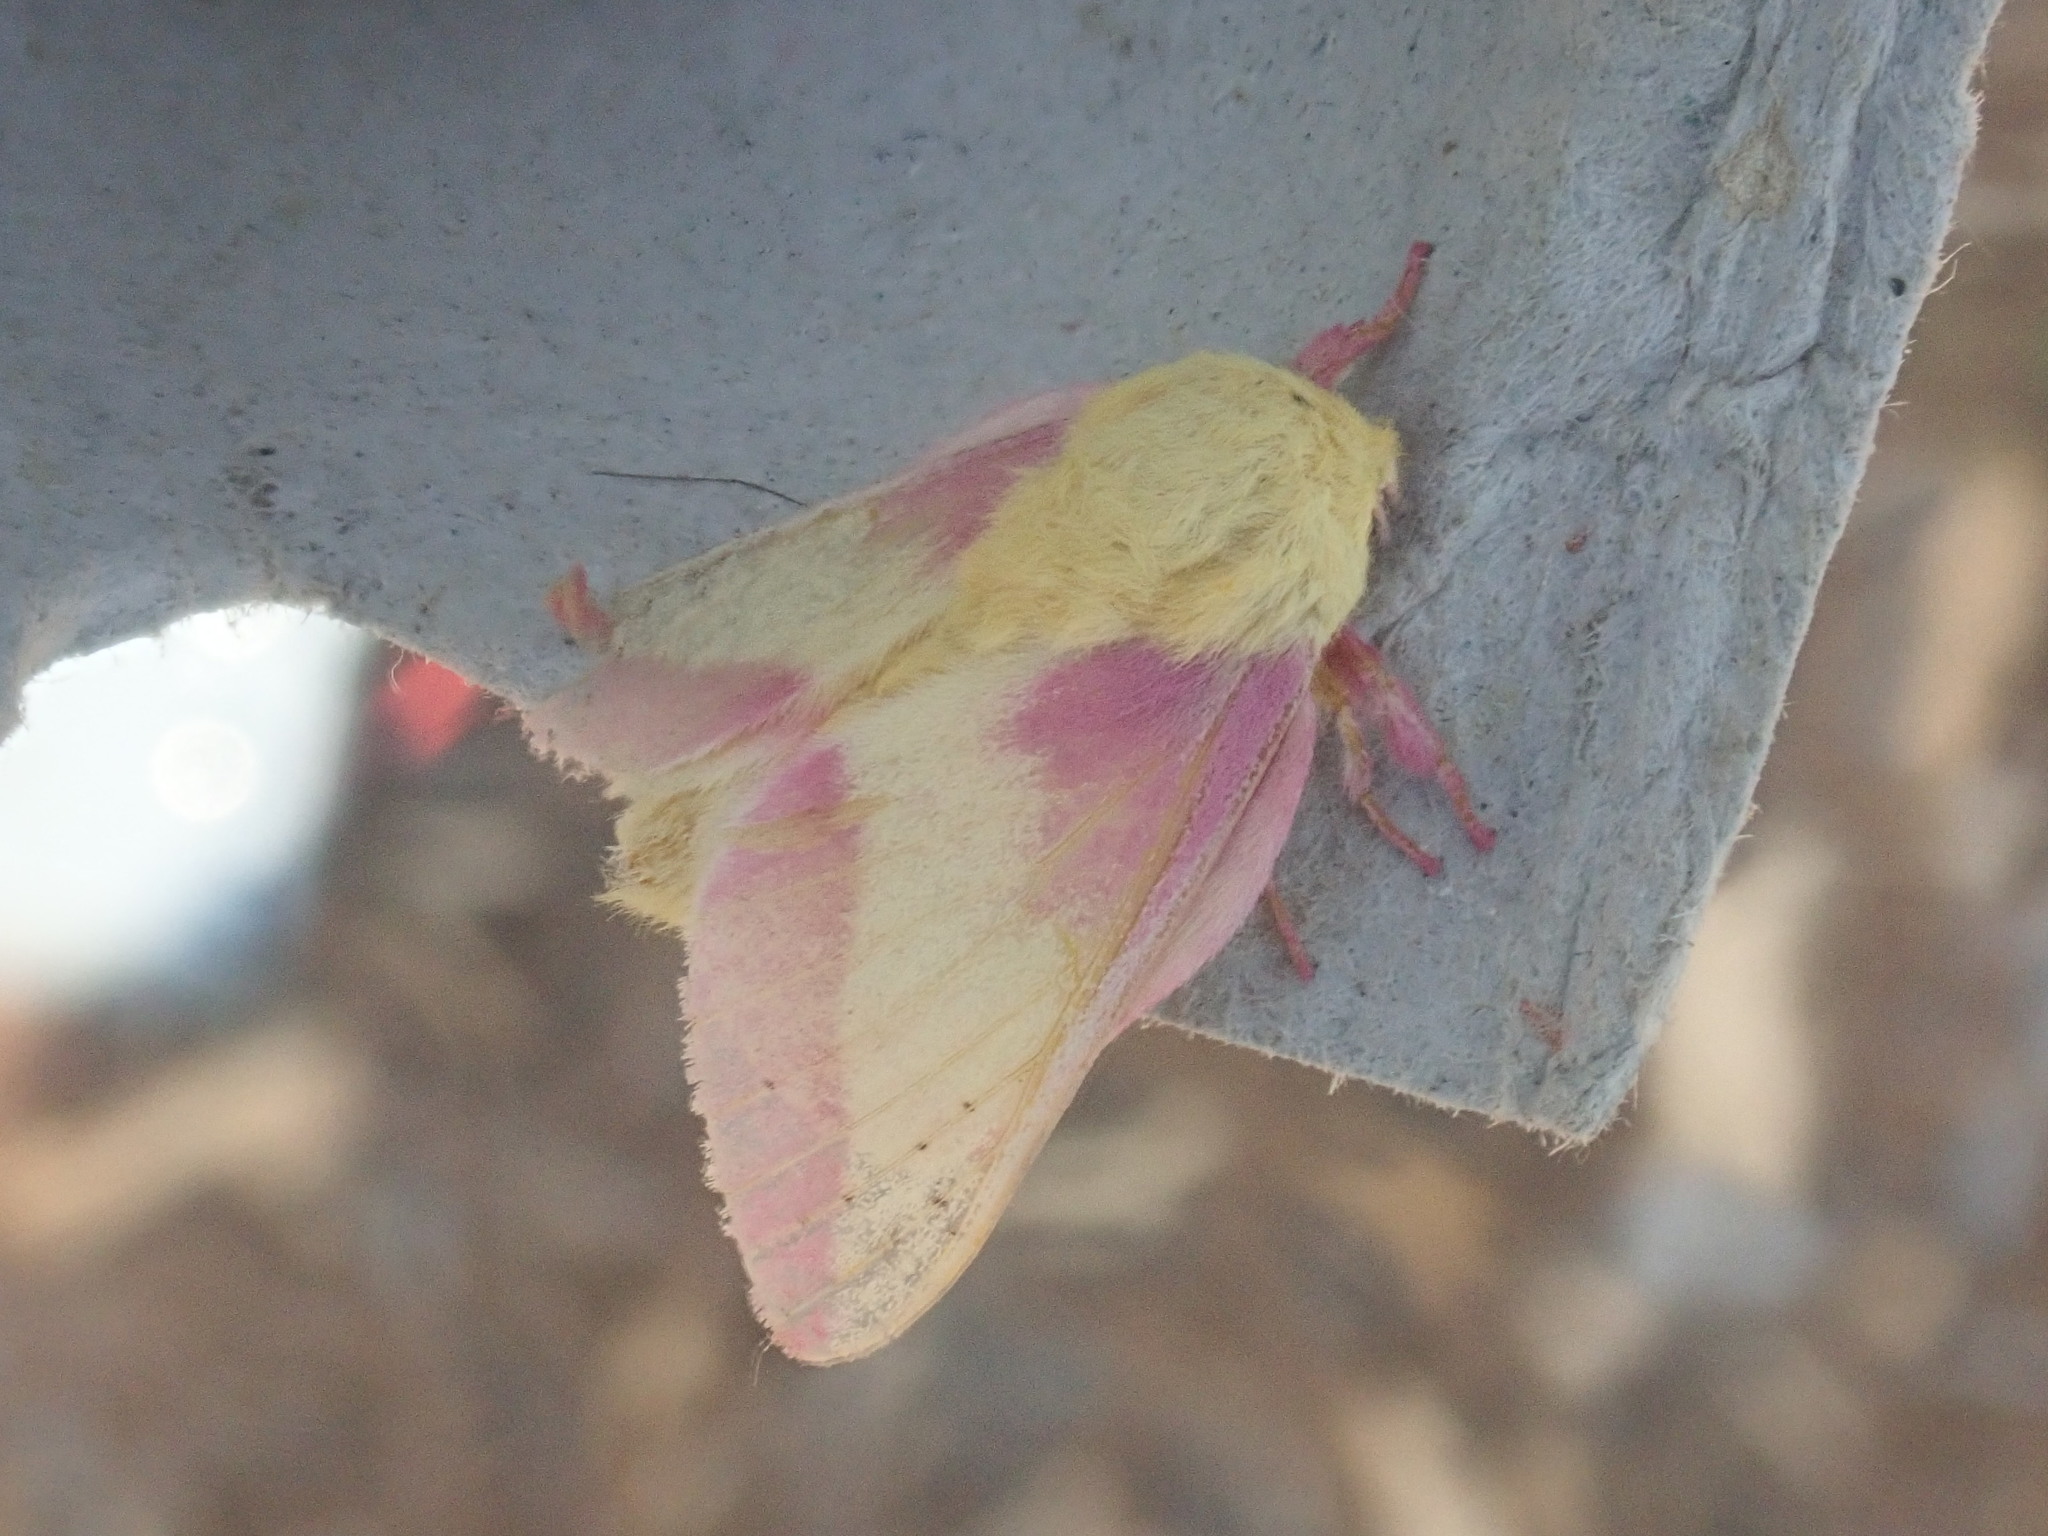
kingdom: Animalia
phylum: Arthropoda
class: Insecta
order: Lepidoptera
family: Saturniidae
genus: Dryocampa
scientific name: Dryocampa rubicunda
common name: Rosy maple moth
